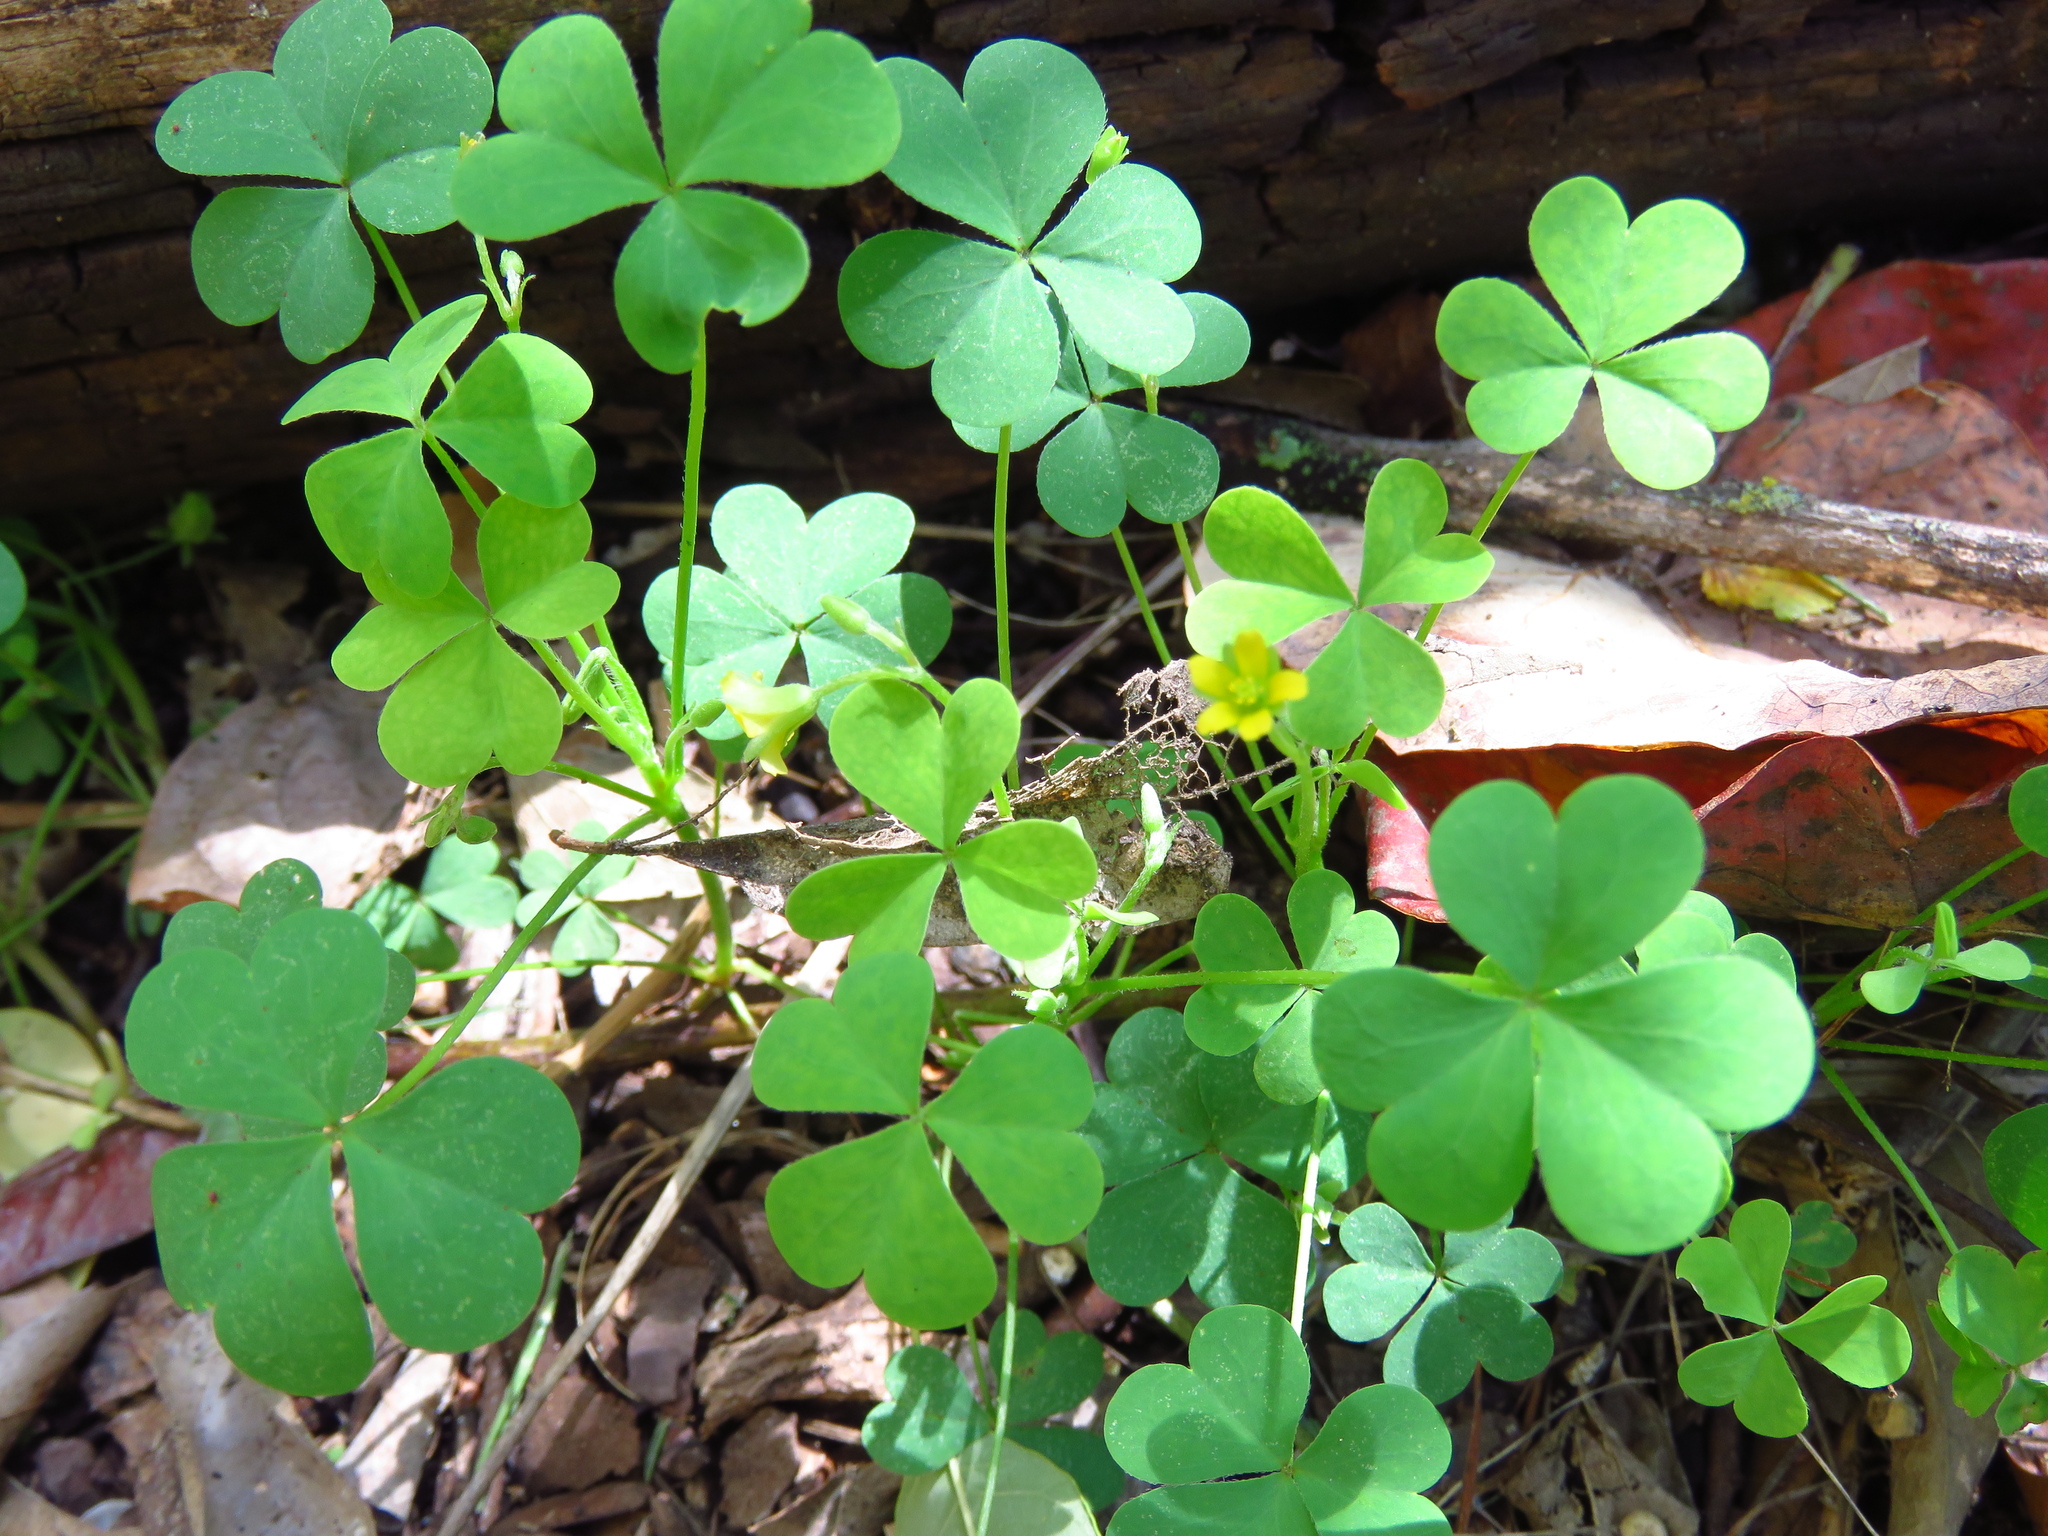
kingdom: Plantae
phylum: Tracheophyta
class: Magnoliopsida
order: Oxalidales
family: Oxalidaceae
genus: Oxalis
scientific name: Oxalis dillenii
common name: Sussex yellow-sorrel
